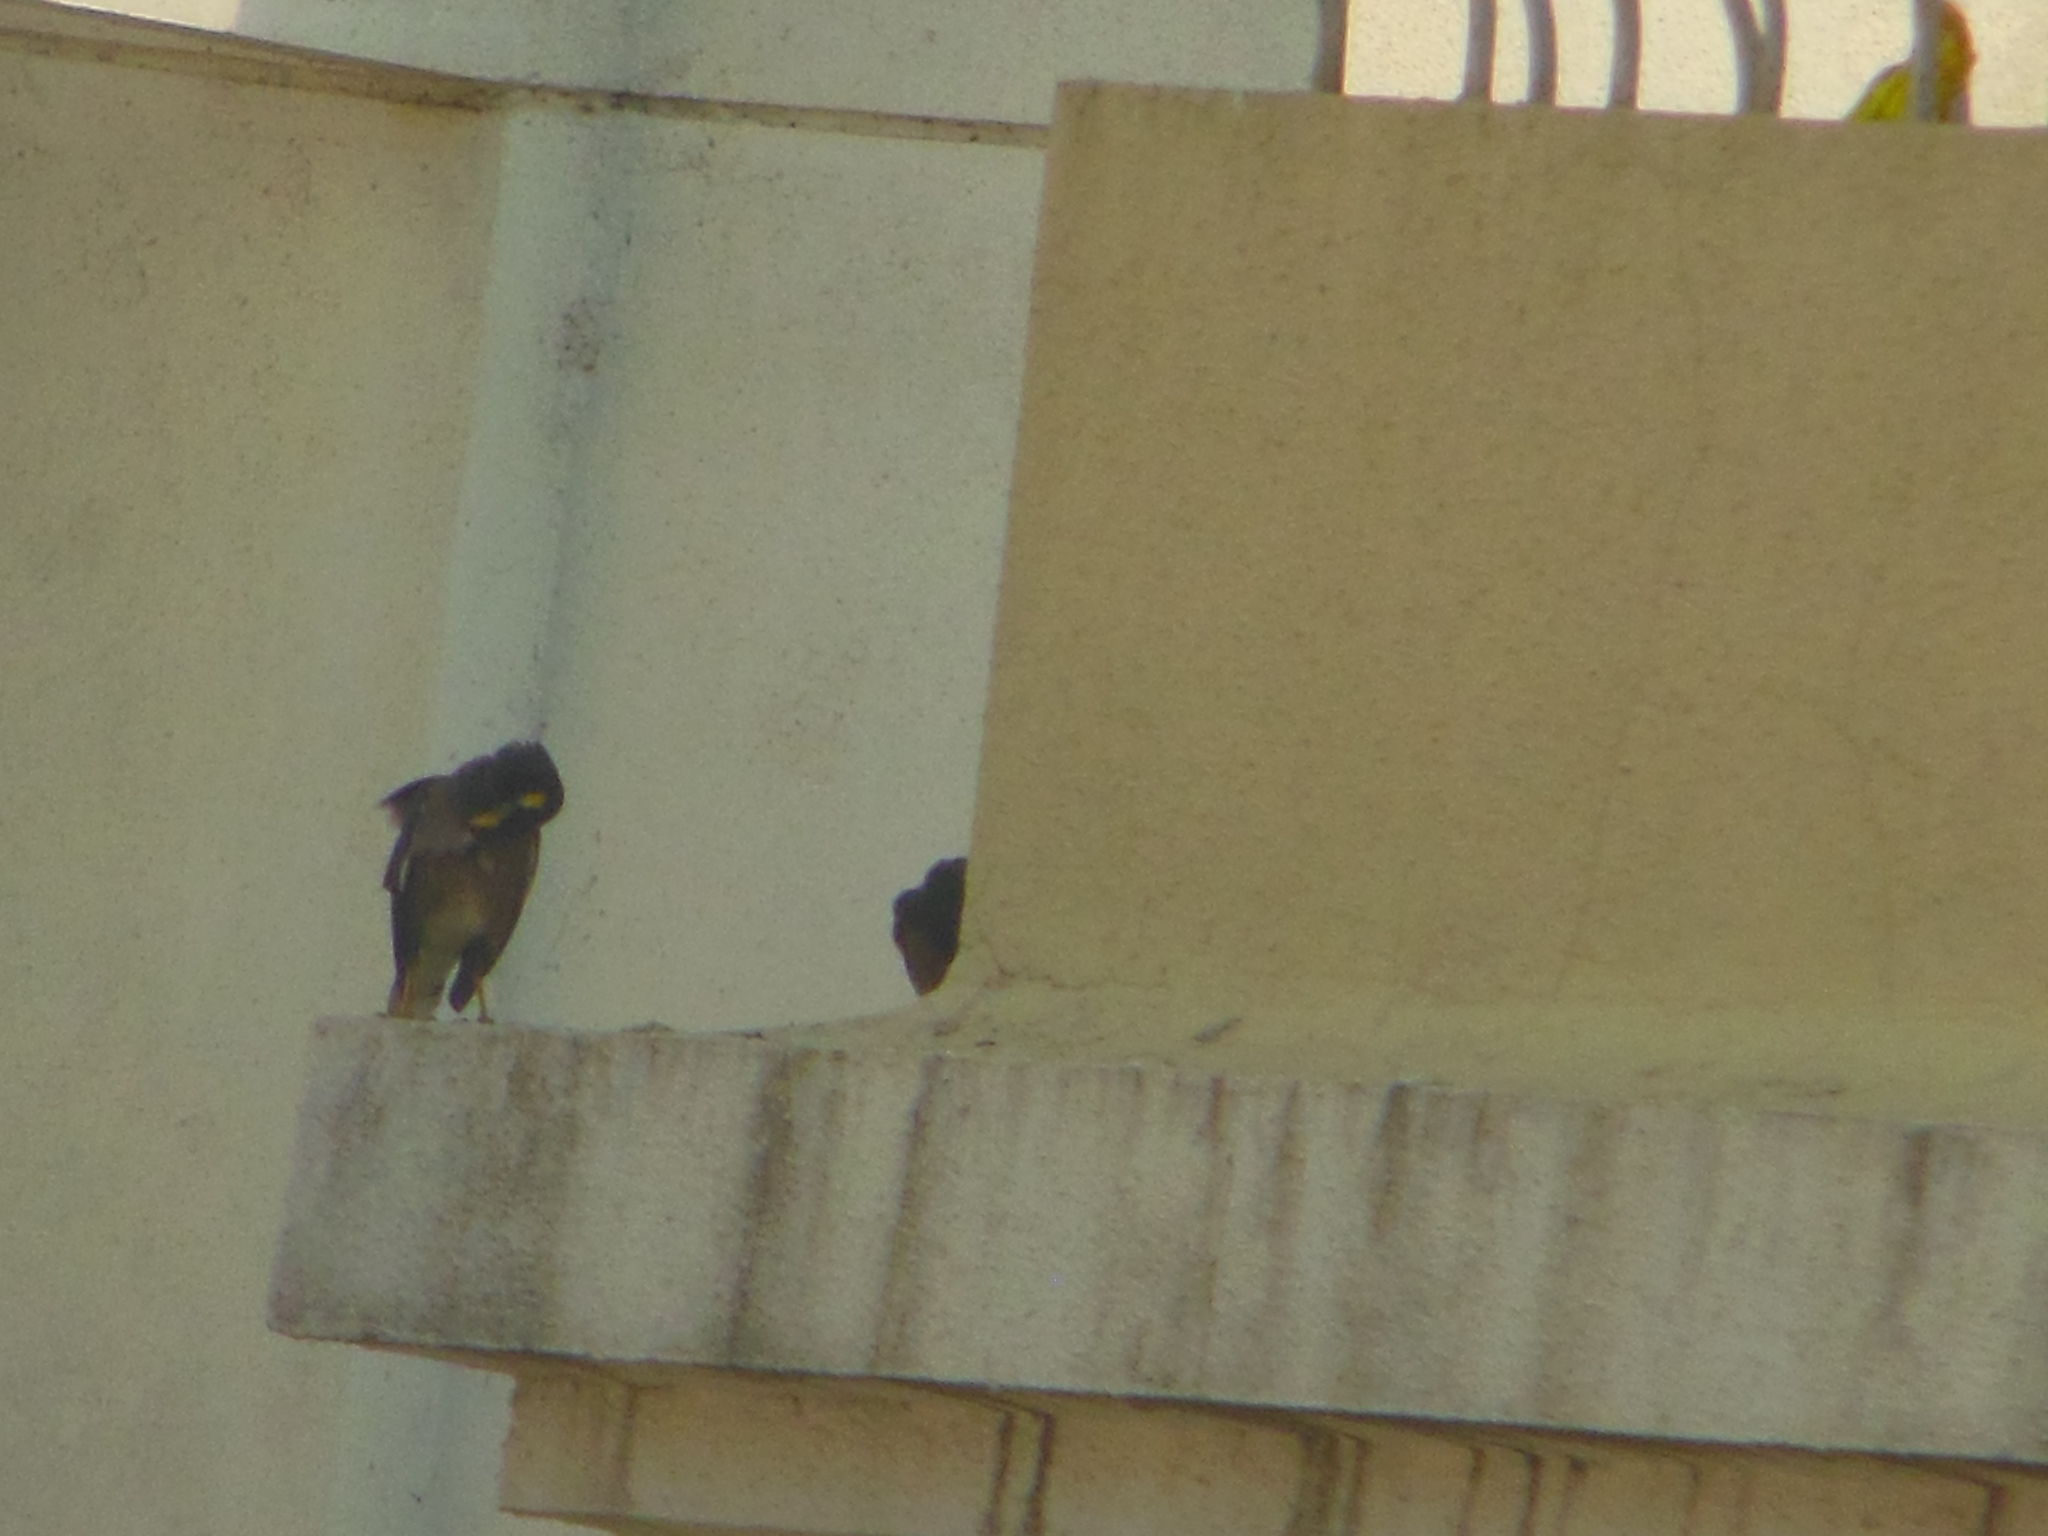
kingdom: Animalia
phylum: Chordata
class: Aves
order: Passeriformes
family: Sturnidae
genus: Acridotheres
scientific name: Acridotheres tristis
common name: Common myna
